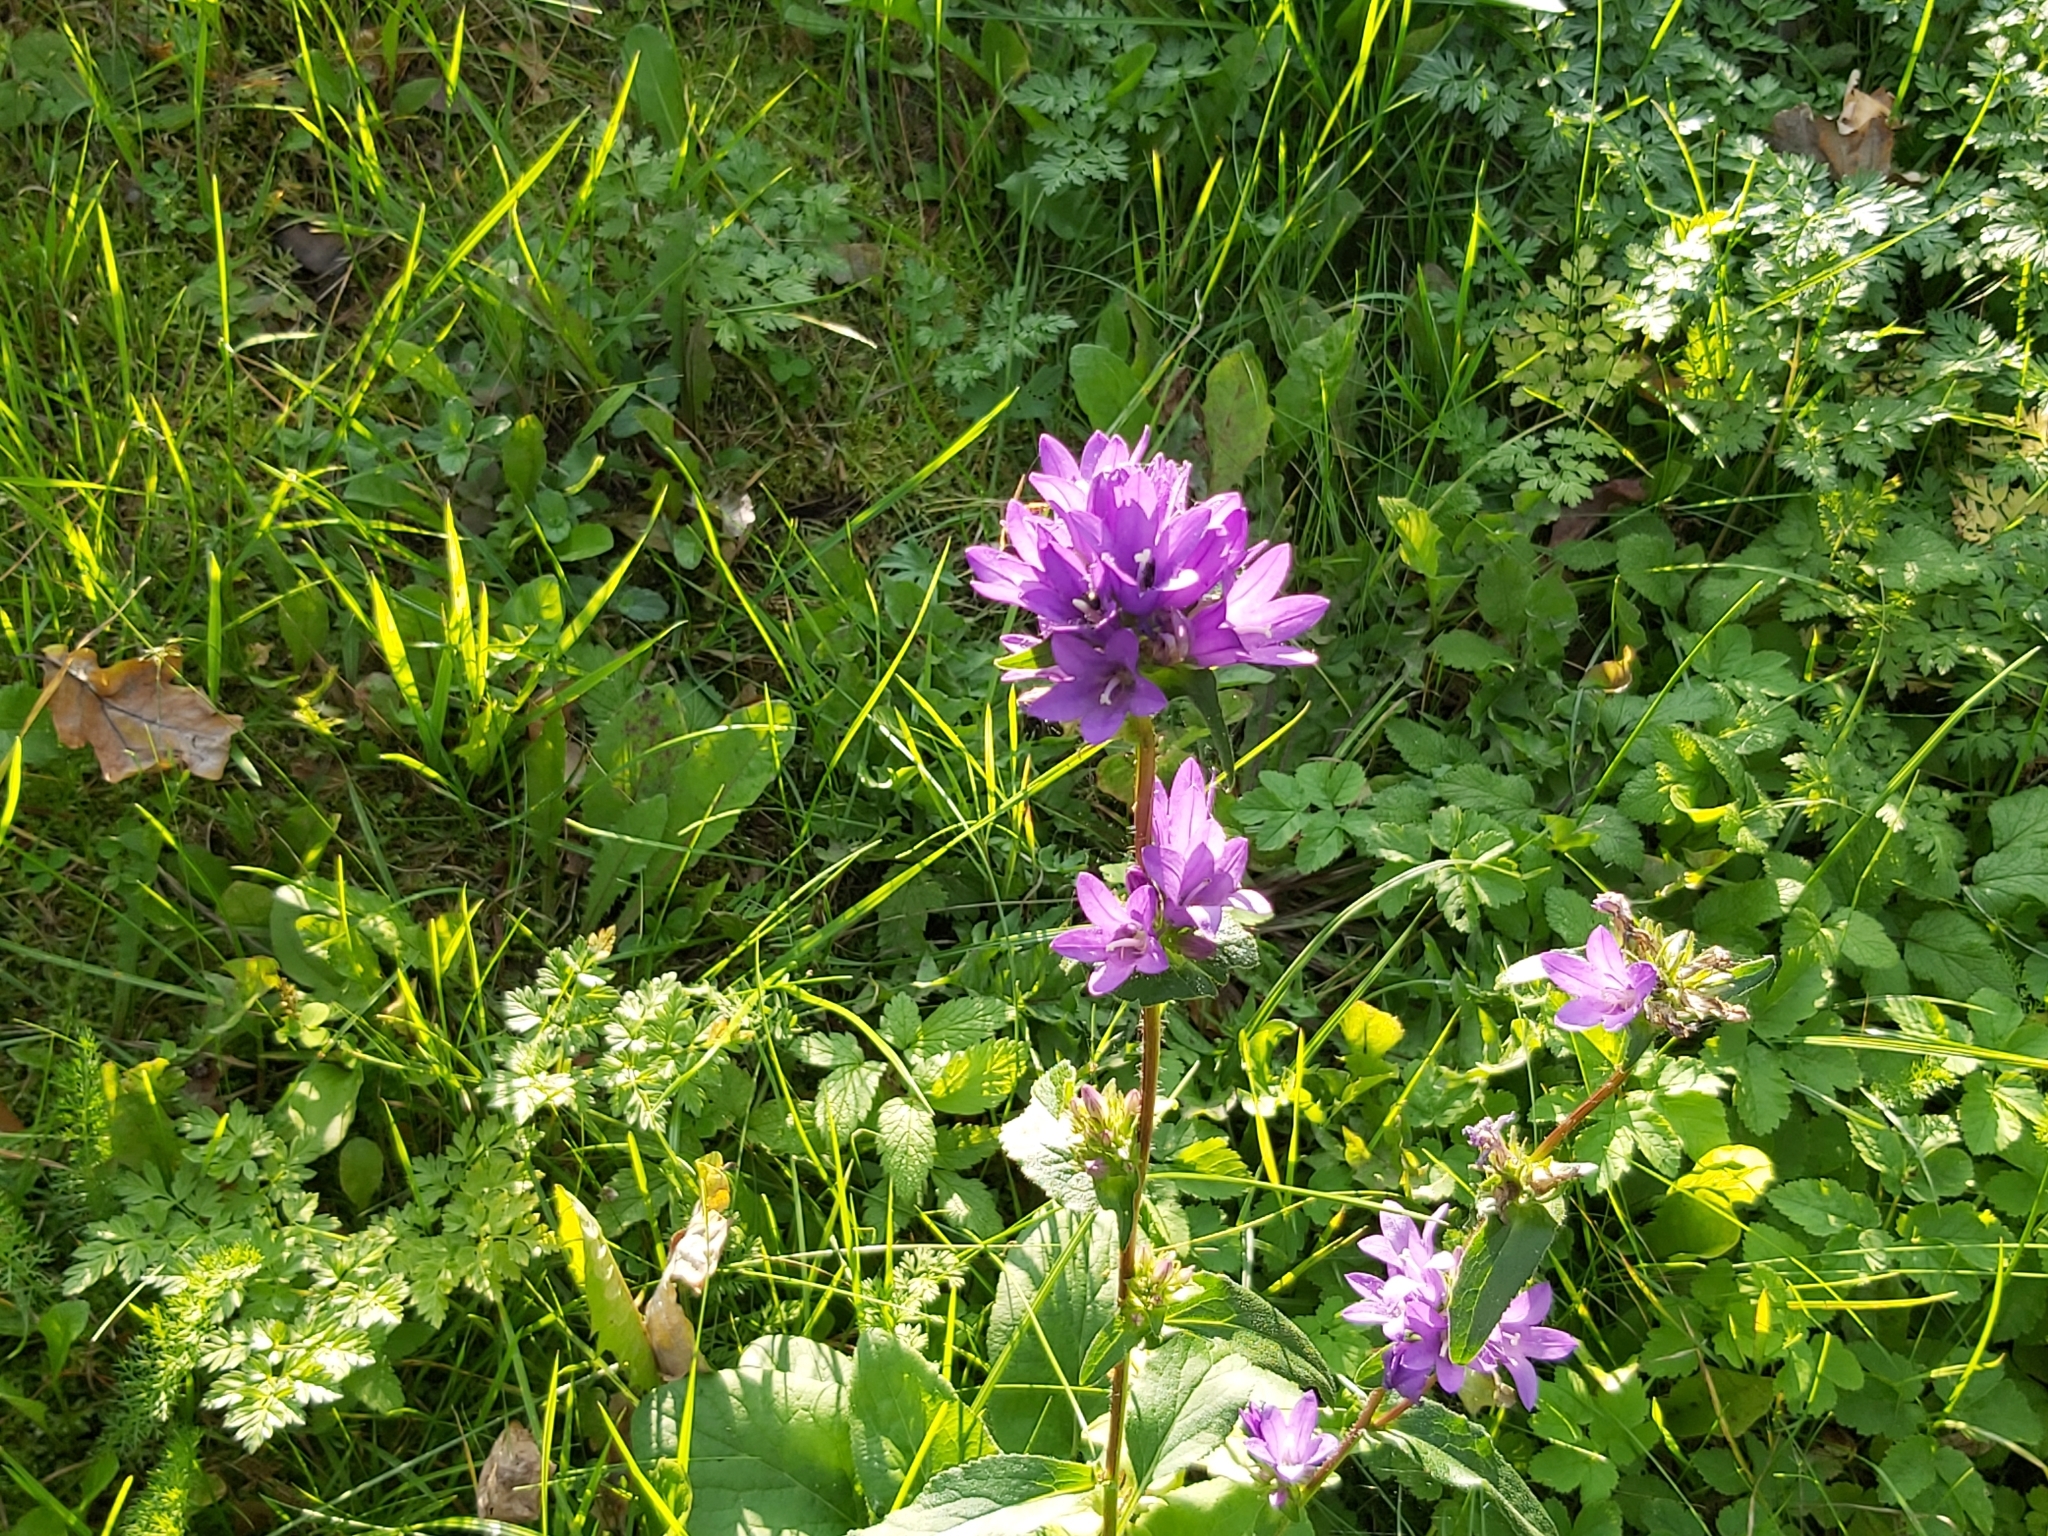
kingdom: Plantae
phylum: Tracheophyta
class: Magnoliopsida
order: Asterales
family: Campanulaceae
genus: Campanula
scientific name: Campanula glomerata
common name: Clustered bellflower
